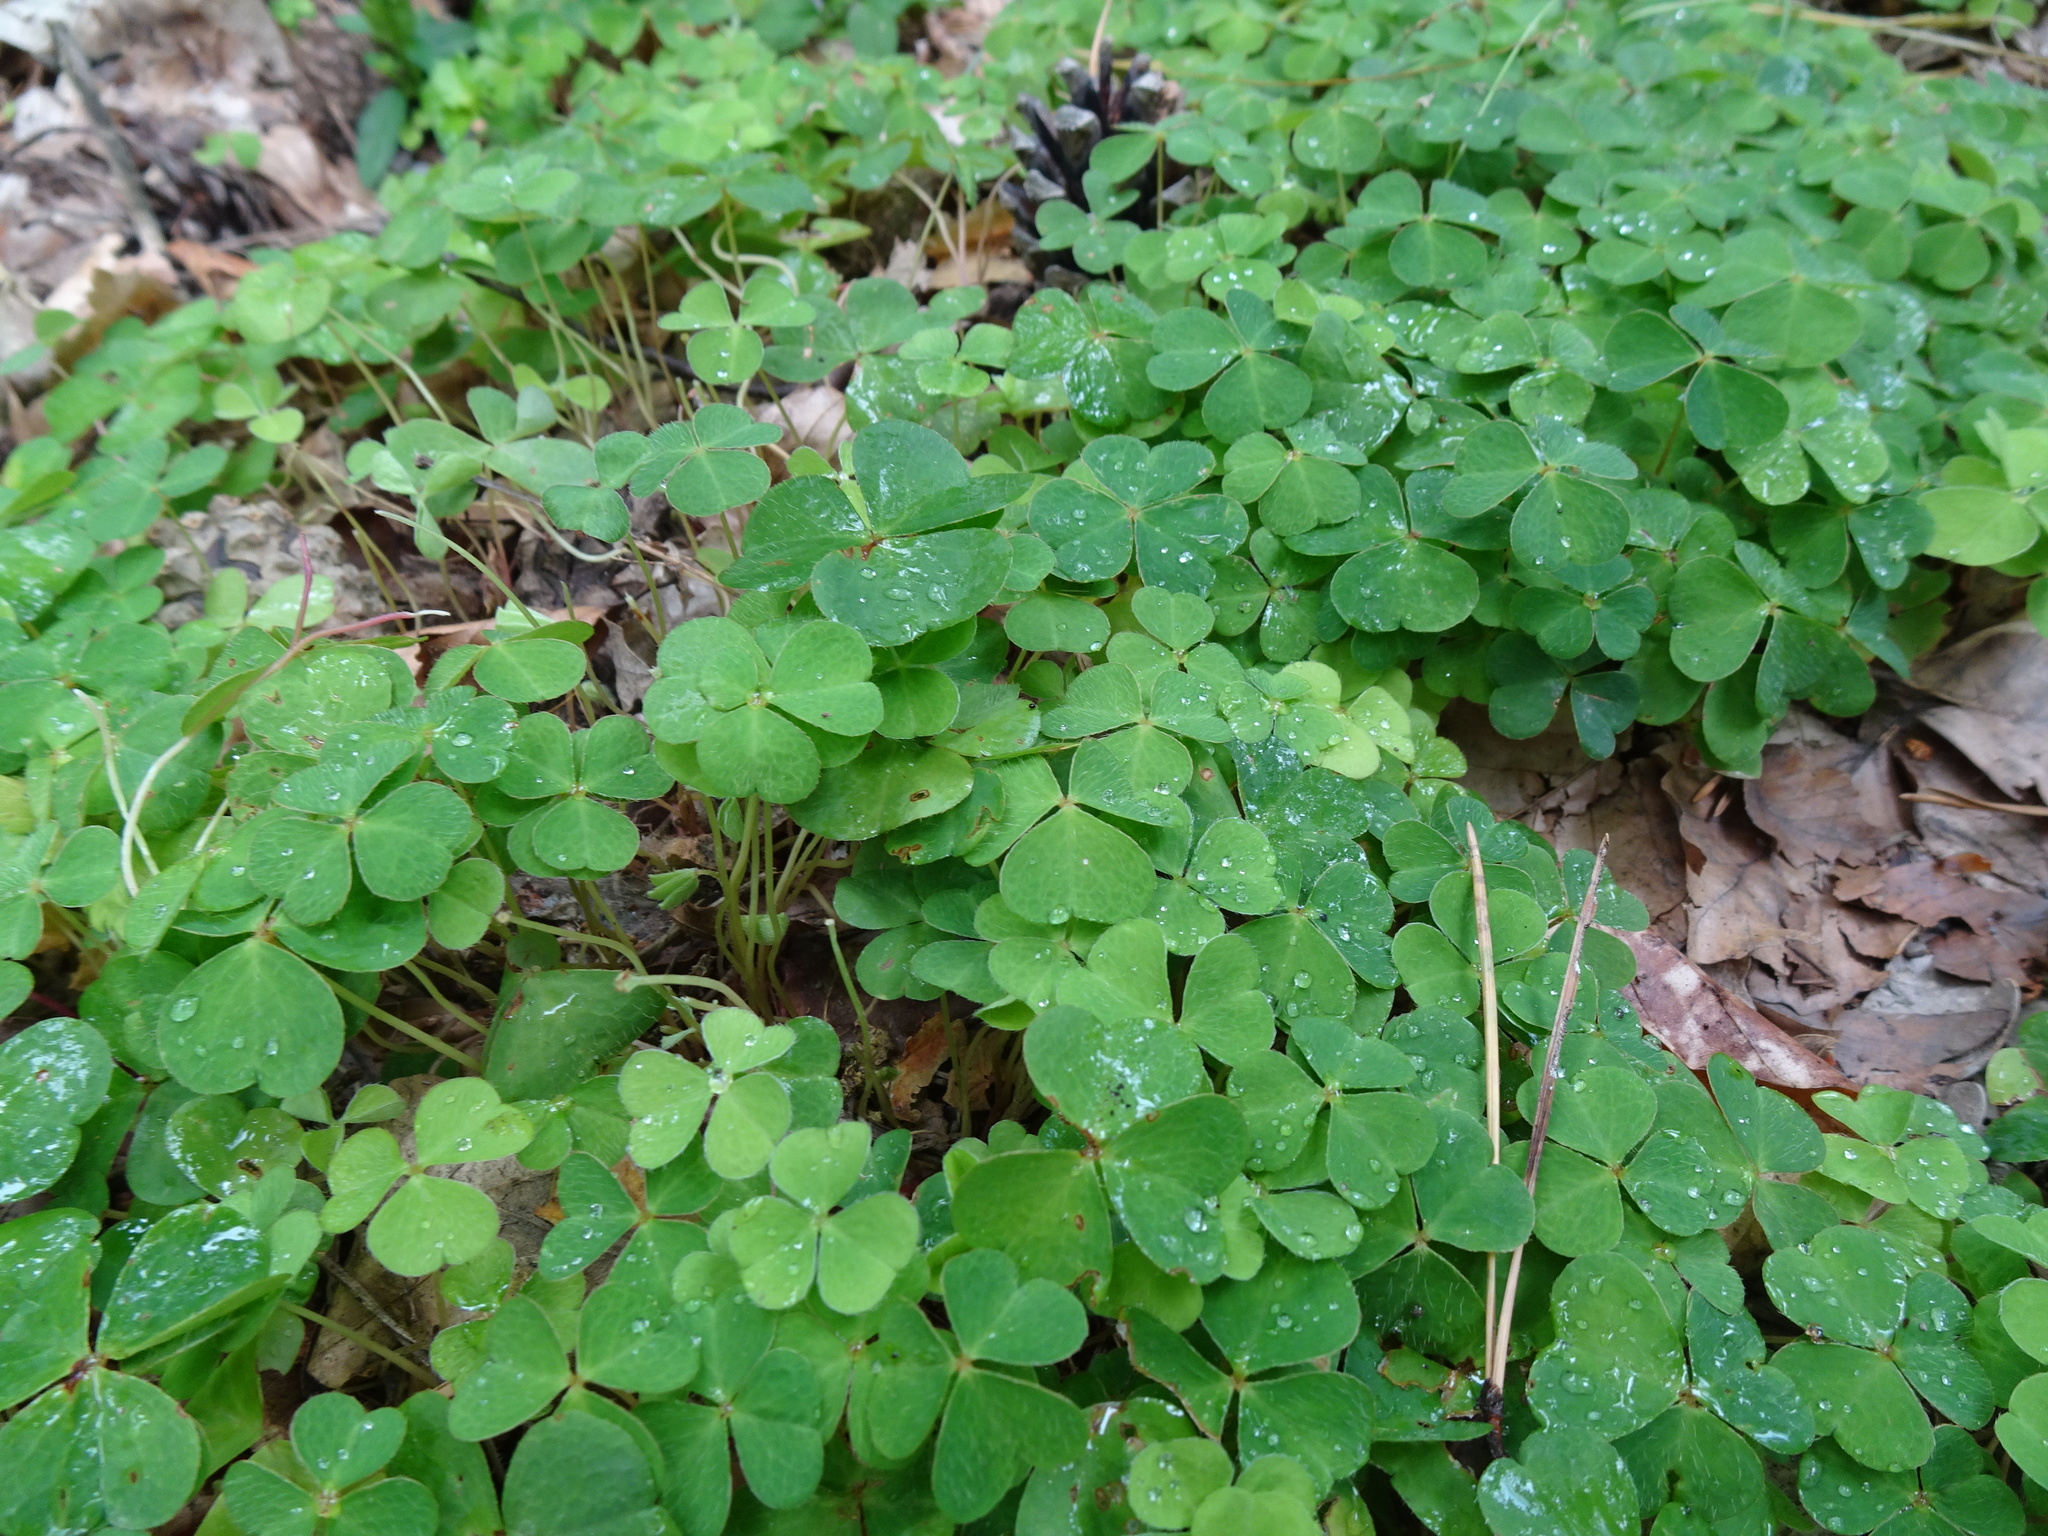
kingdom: Plantae
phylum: Tracheophyta
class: Magnoliopsida
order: Oxalidales
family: Oxalidaceae
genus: Oxalis
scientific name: Oxalis acetosella
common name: Wood-sorrel
